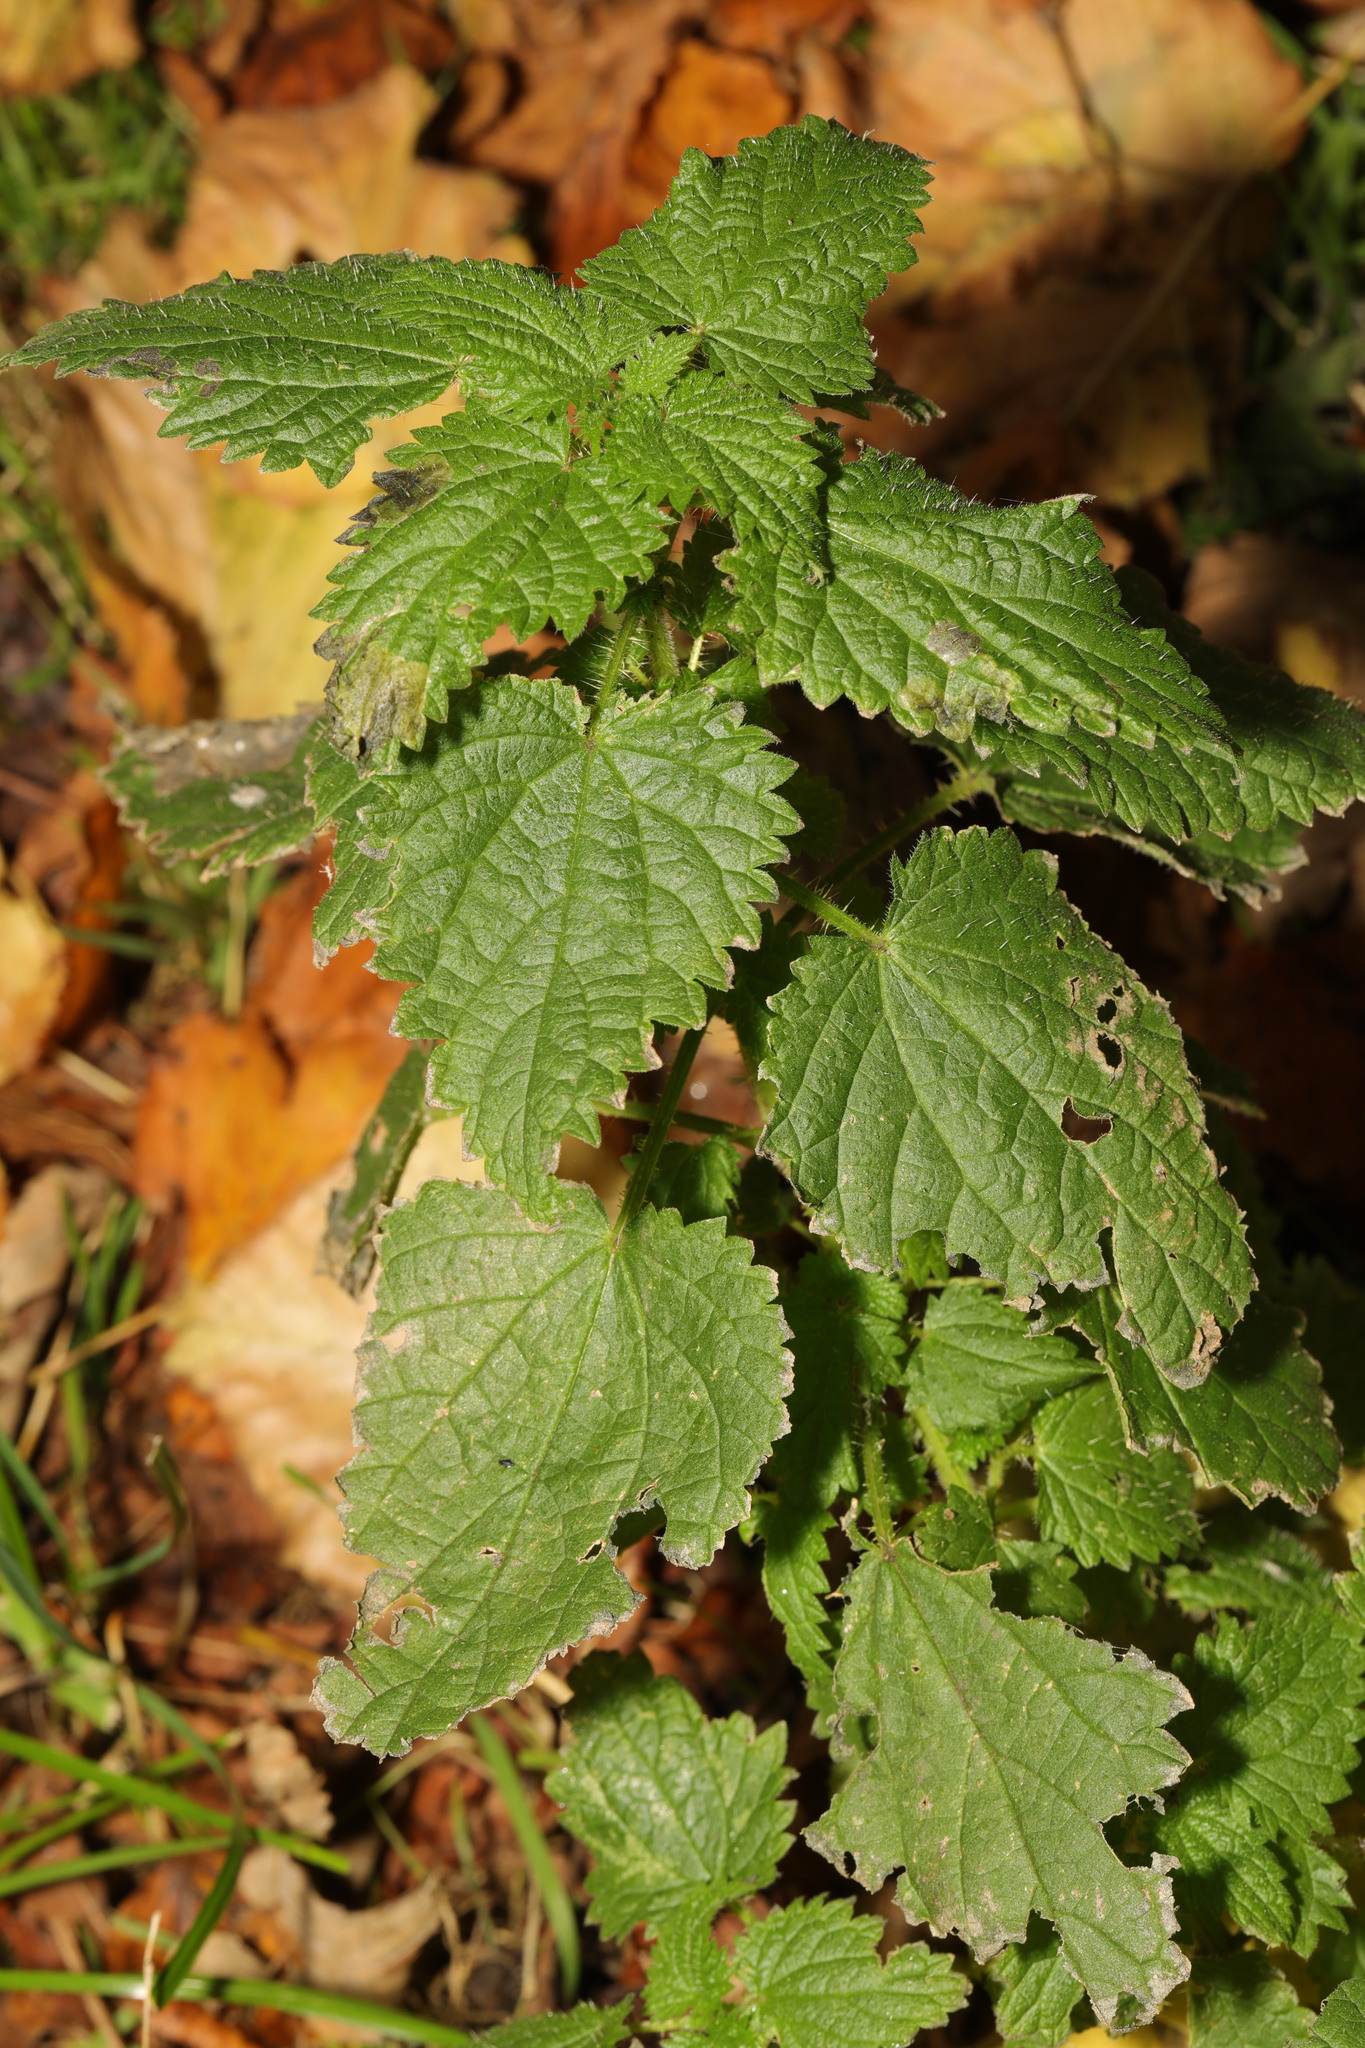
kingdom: Plantae
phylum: Tracheophyta
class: Magnoliopsida
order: Rosales
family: Urticaceae
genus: Urtica
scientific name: Urtica dioica
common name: Common nettle
